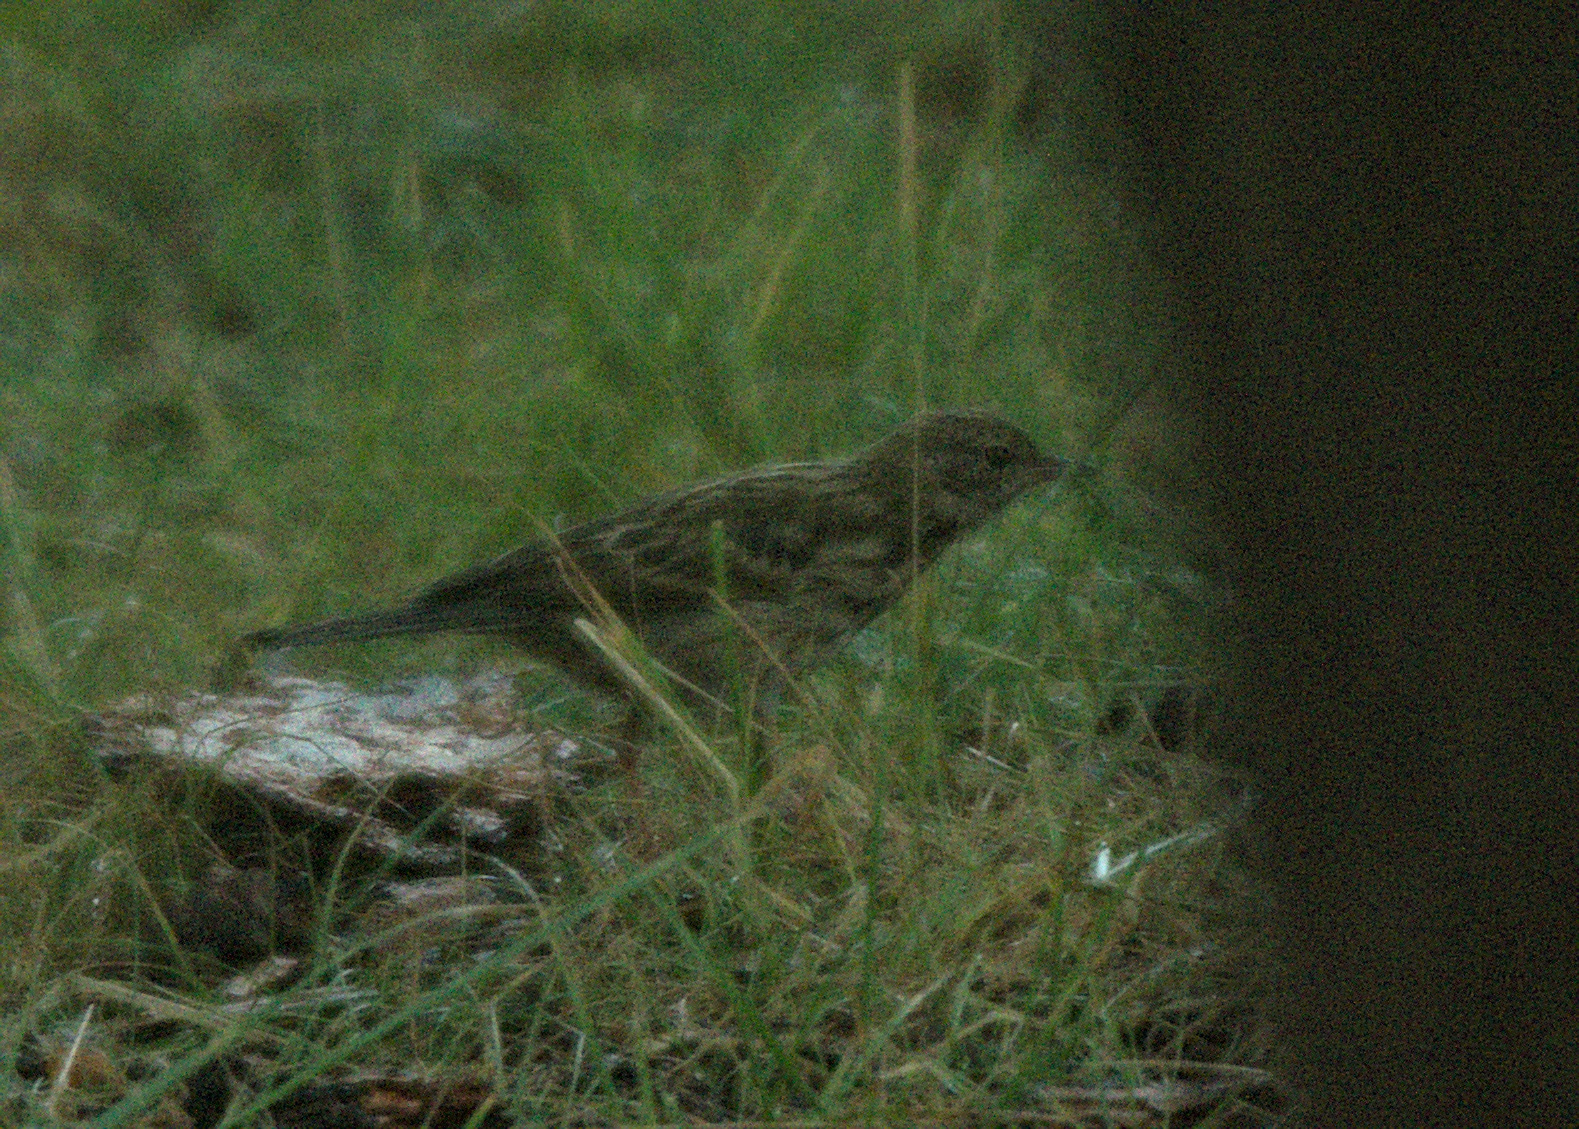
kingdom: Animalia
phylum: Chordata
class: Aves
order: Passeriformes
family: Motacillidae
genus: Anthus
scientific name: Anthus trivialis
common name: Tree pipit
